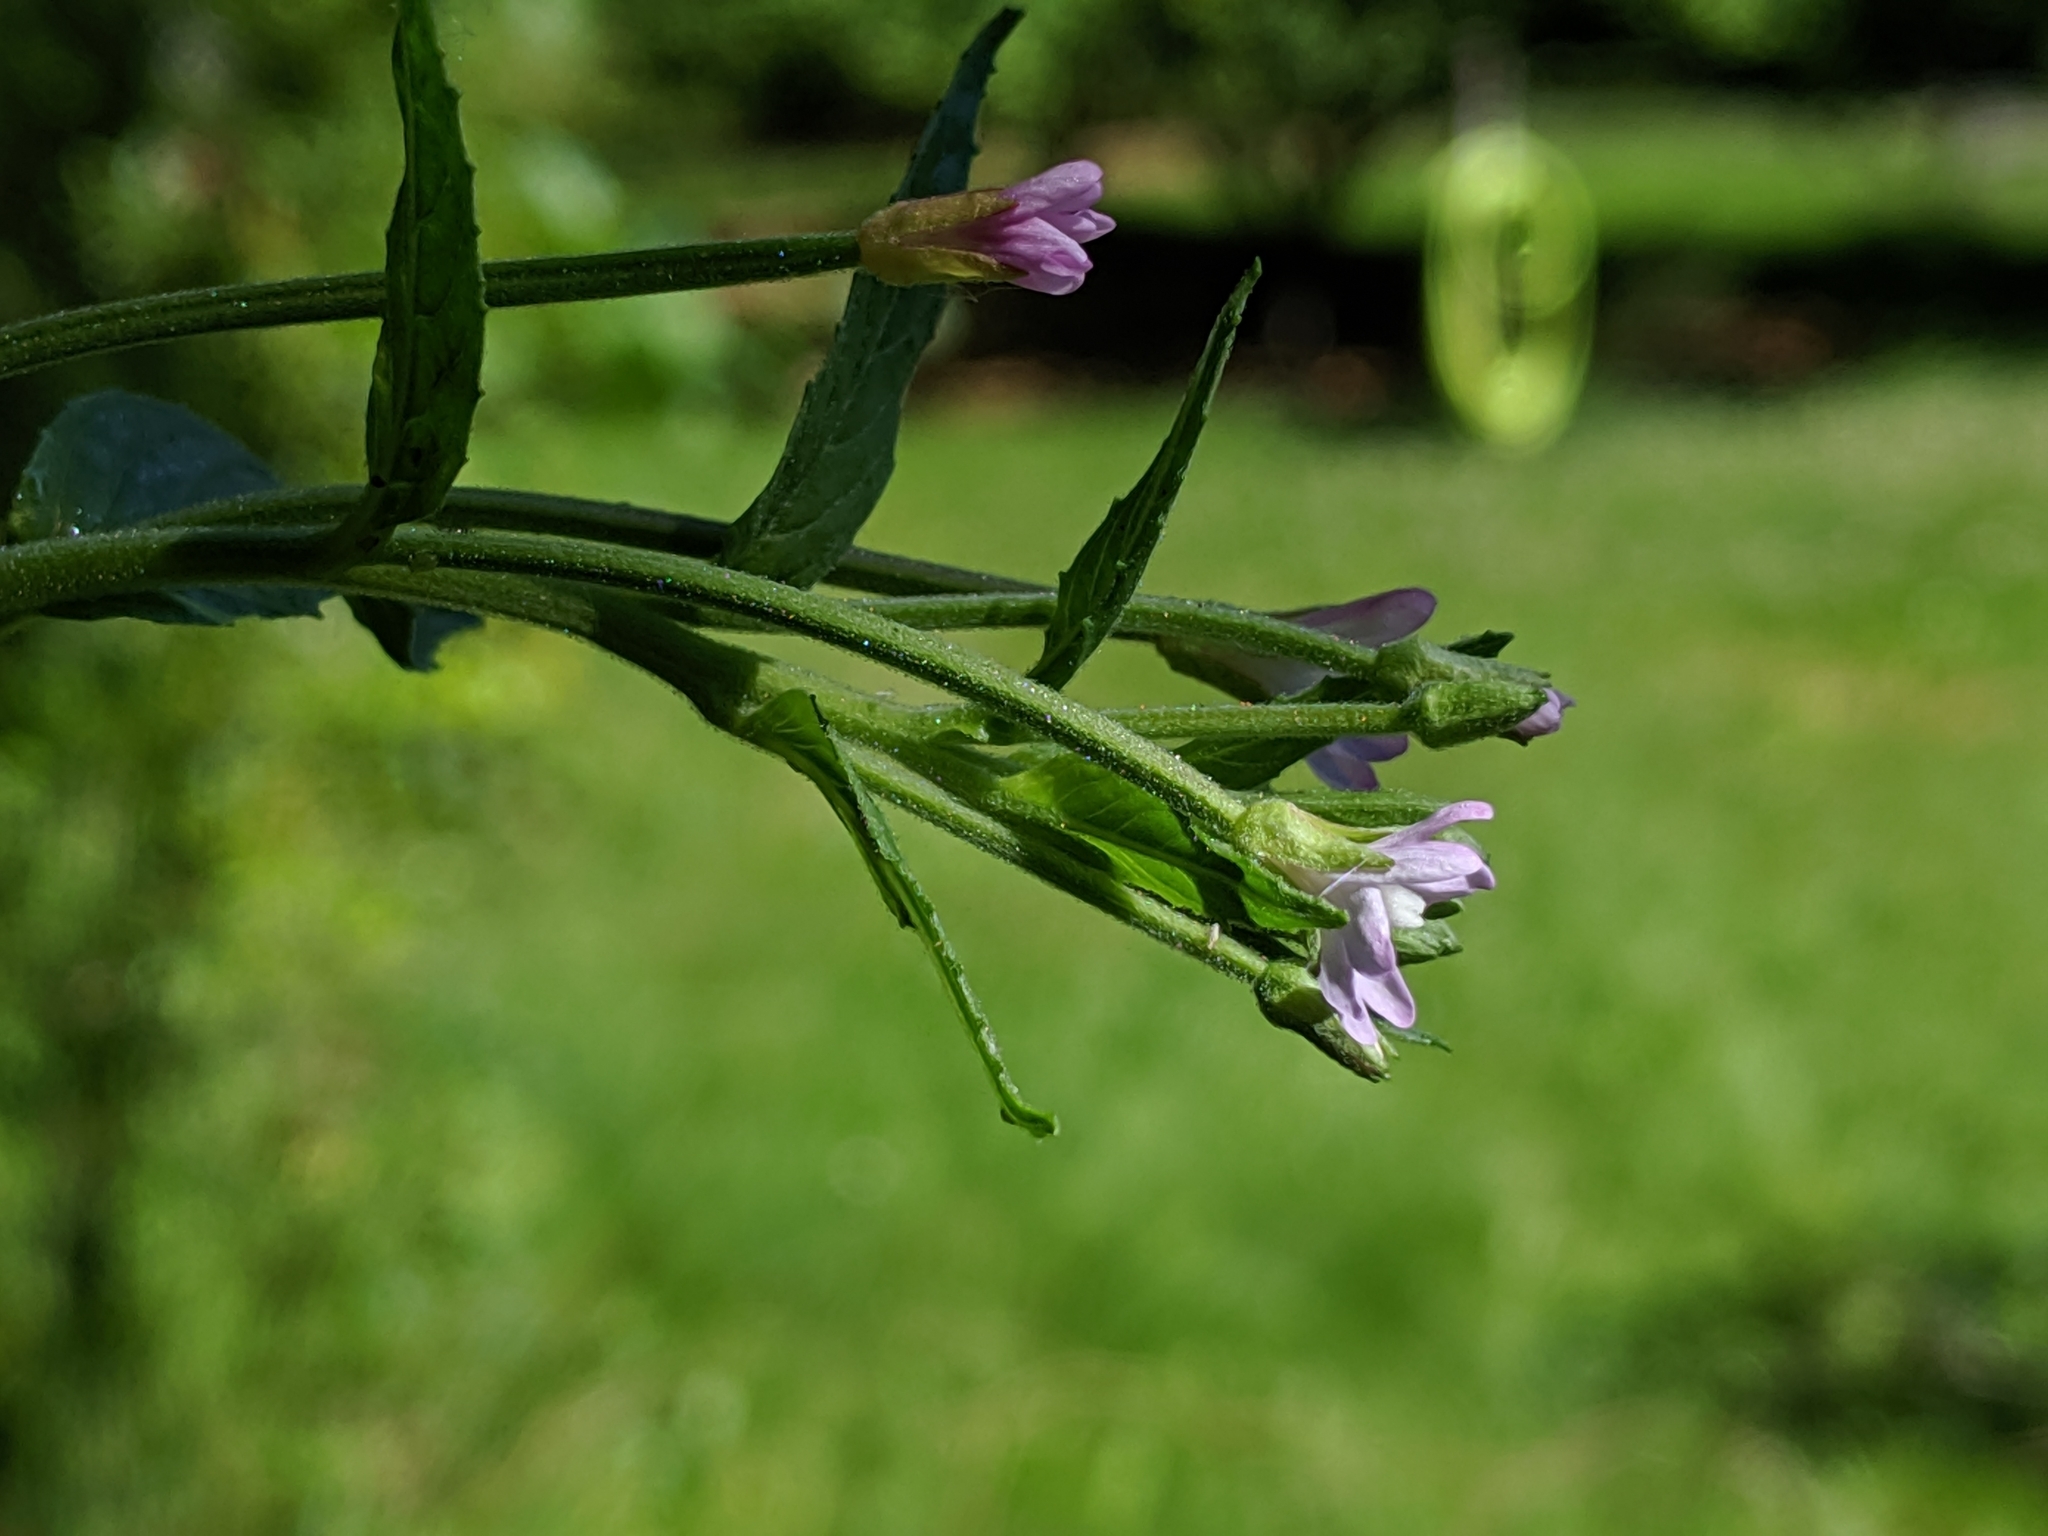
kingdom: Plantae
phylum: Tracheophyta
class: Magnoliopsida
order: Myrtales
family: Onagraceae
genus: Epilobium
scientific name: Epilobium ciliatum
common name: American willowherb
